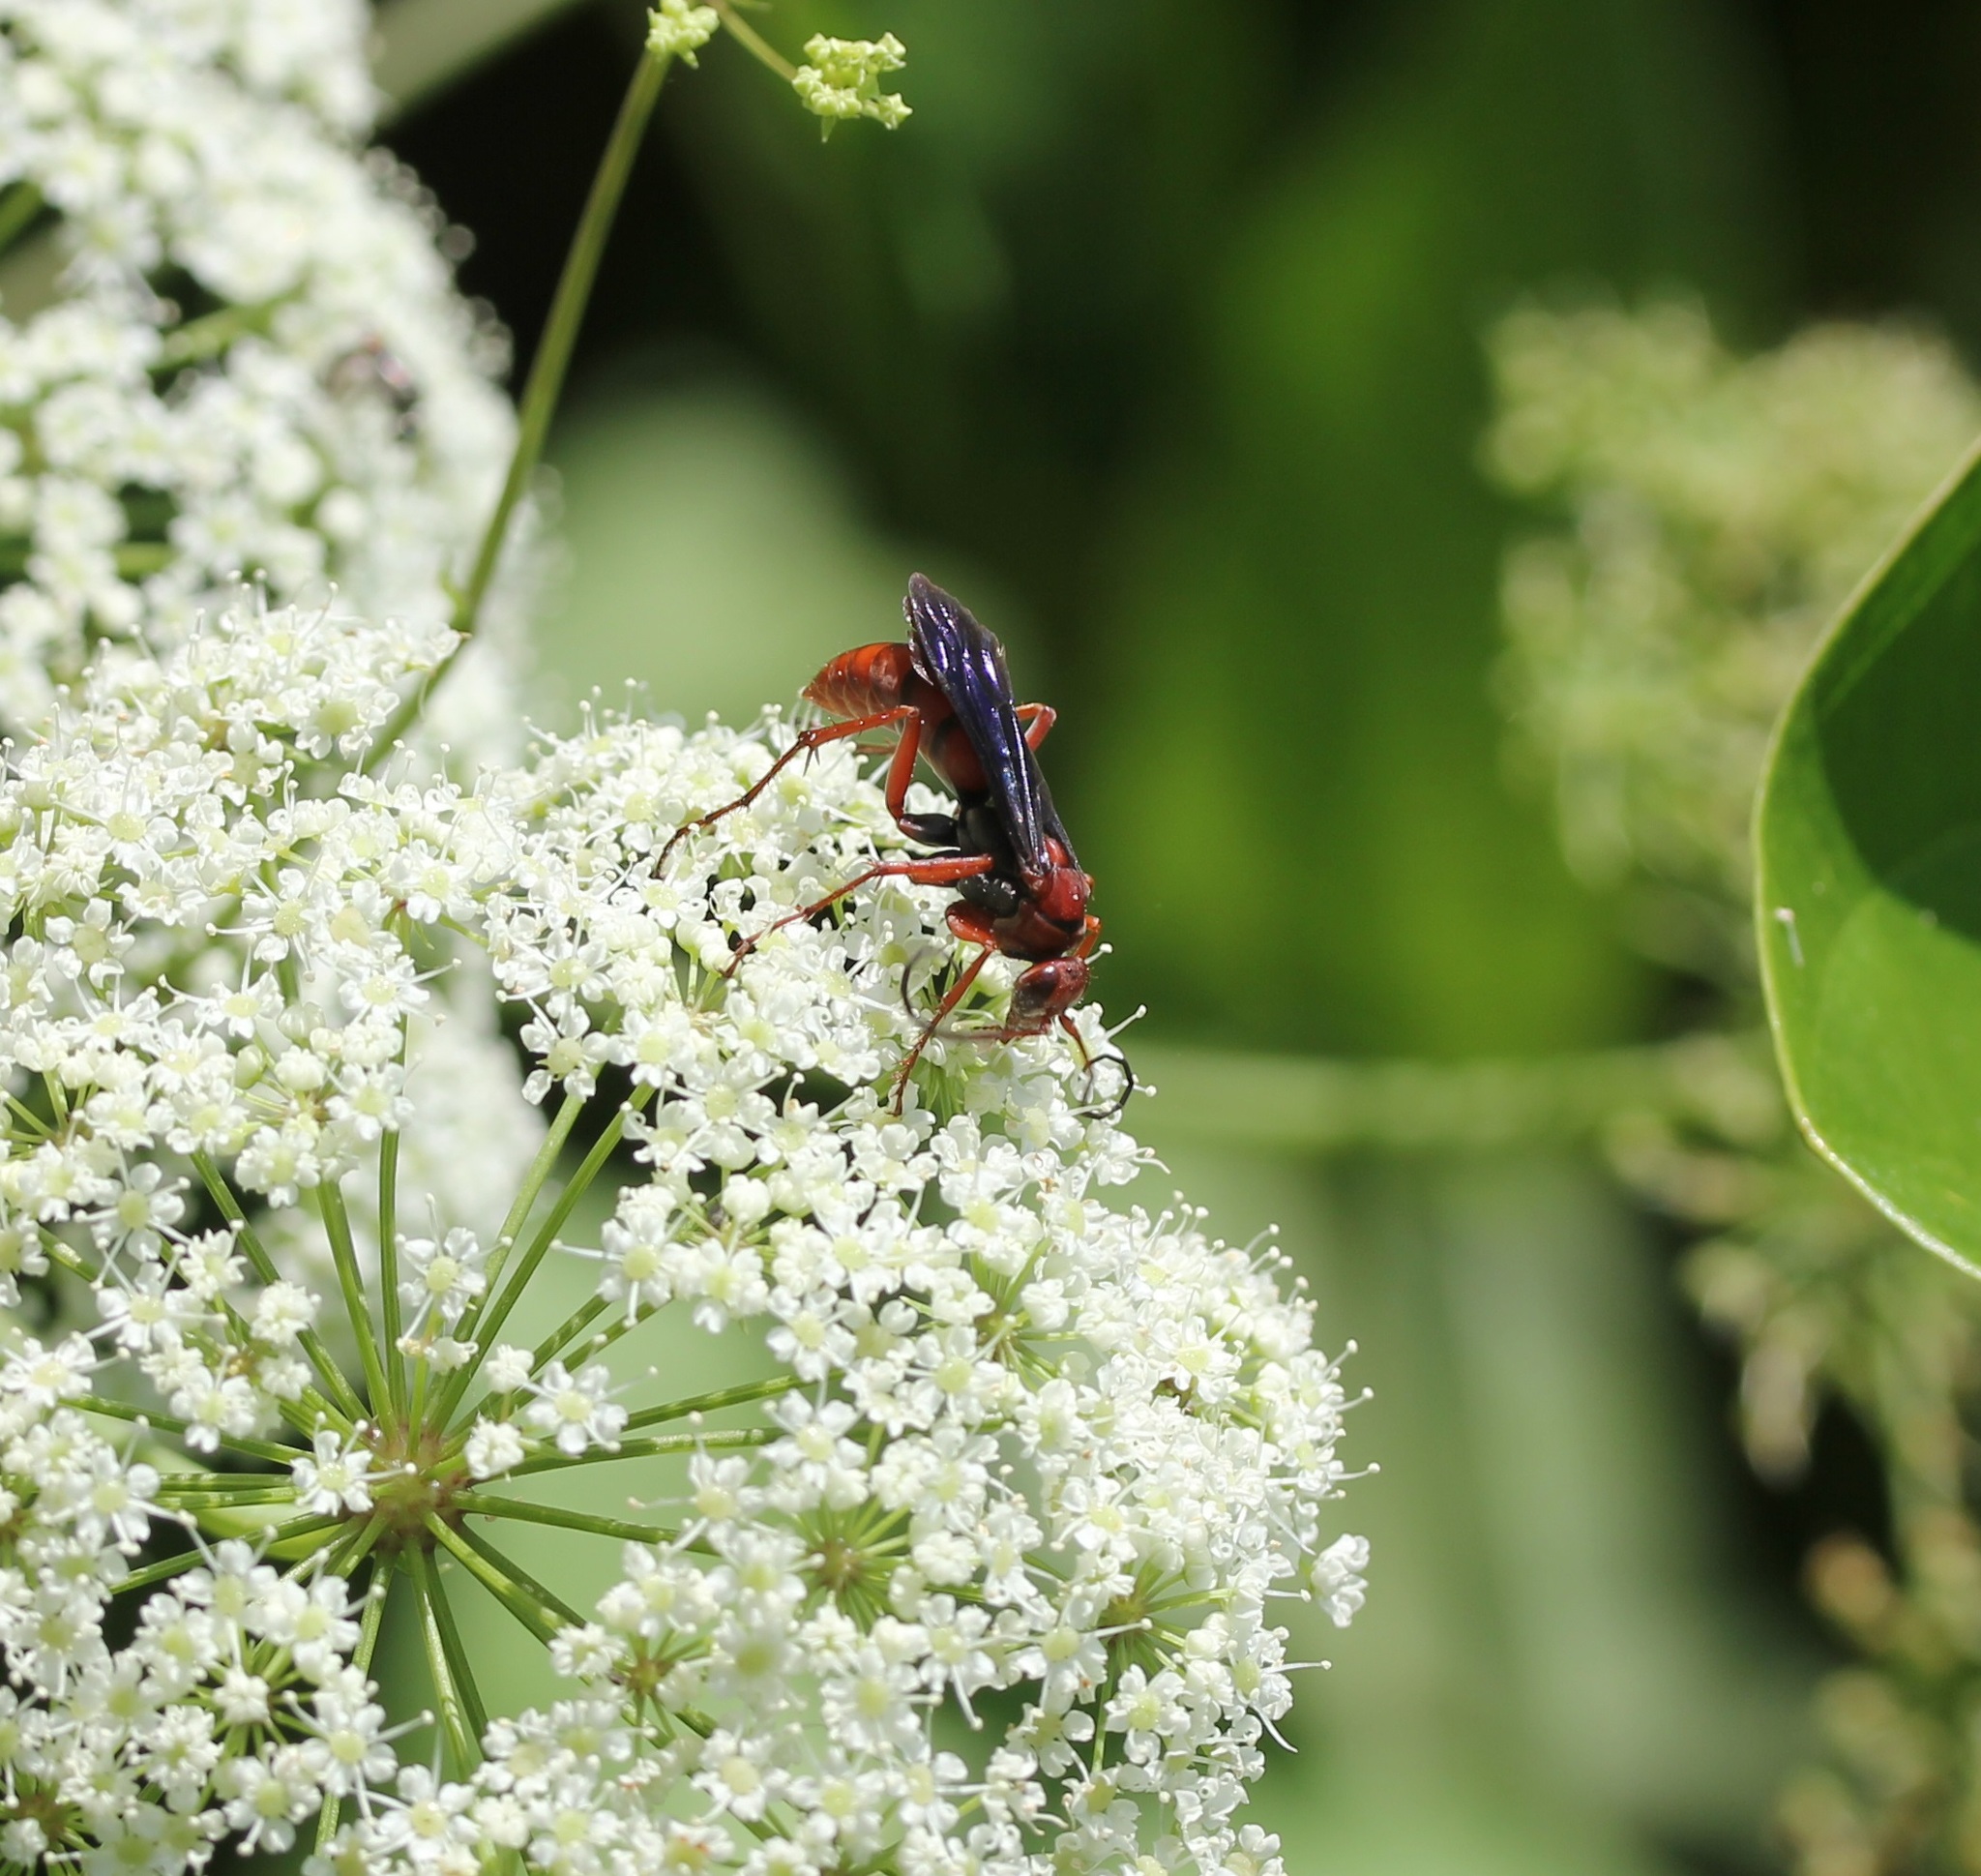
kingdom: Animalia
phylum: Arthropoda
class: Insecta
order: Hymenoptera
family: Pompilidae
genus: Tachypompilus
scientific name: Tachypompilus ferrugineus
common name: Rusty spider wasp
